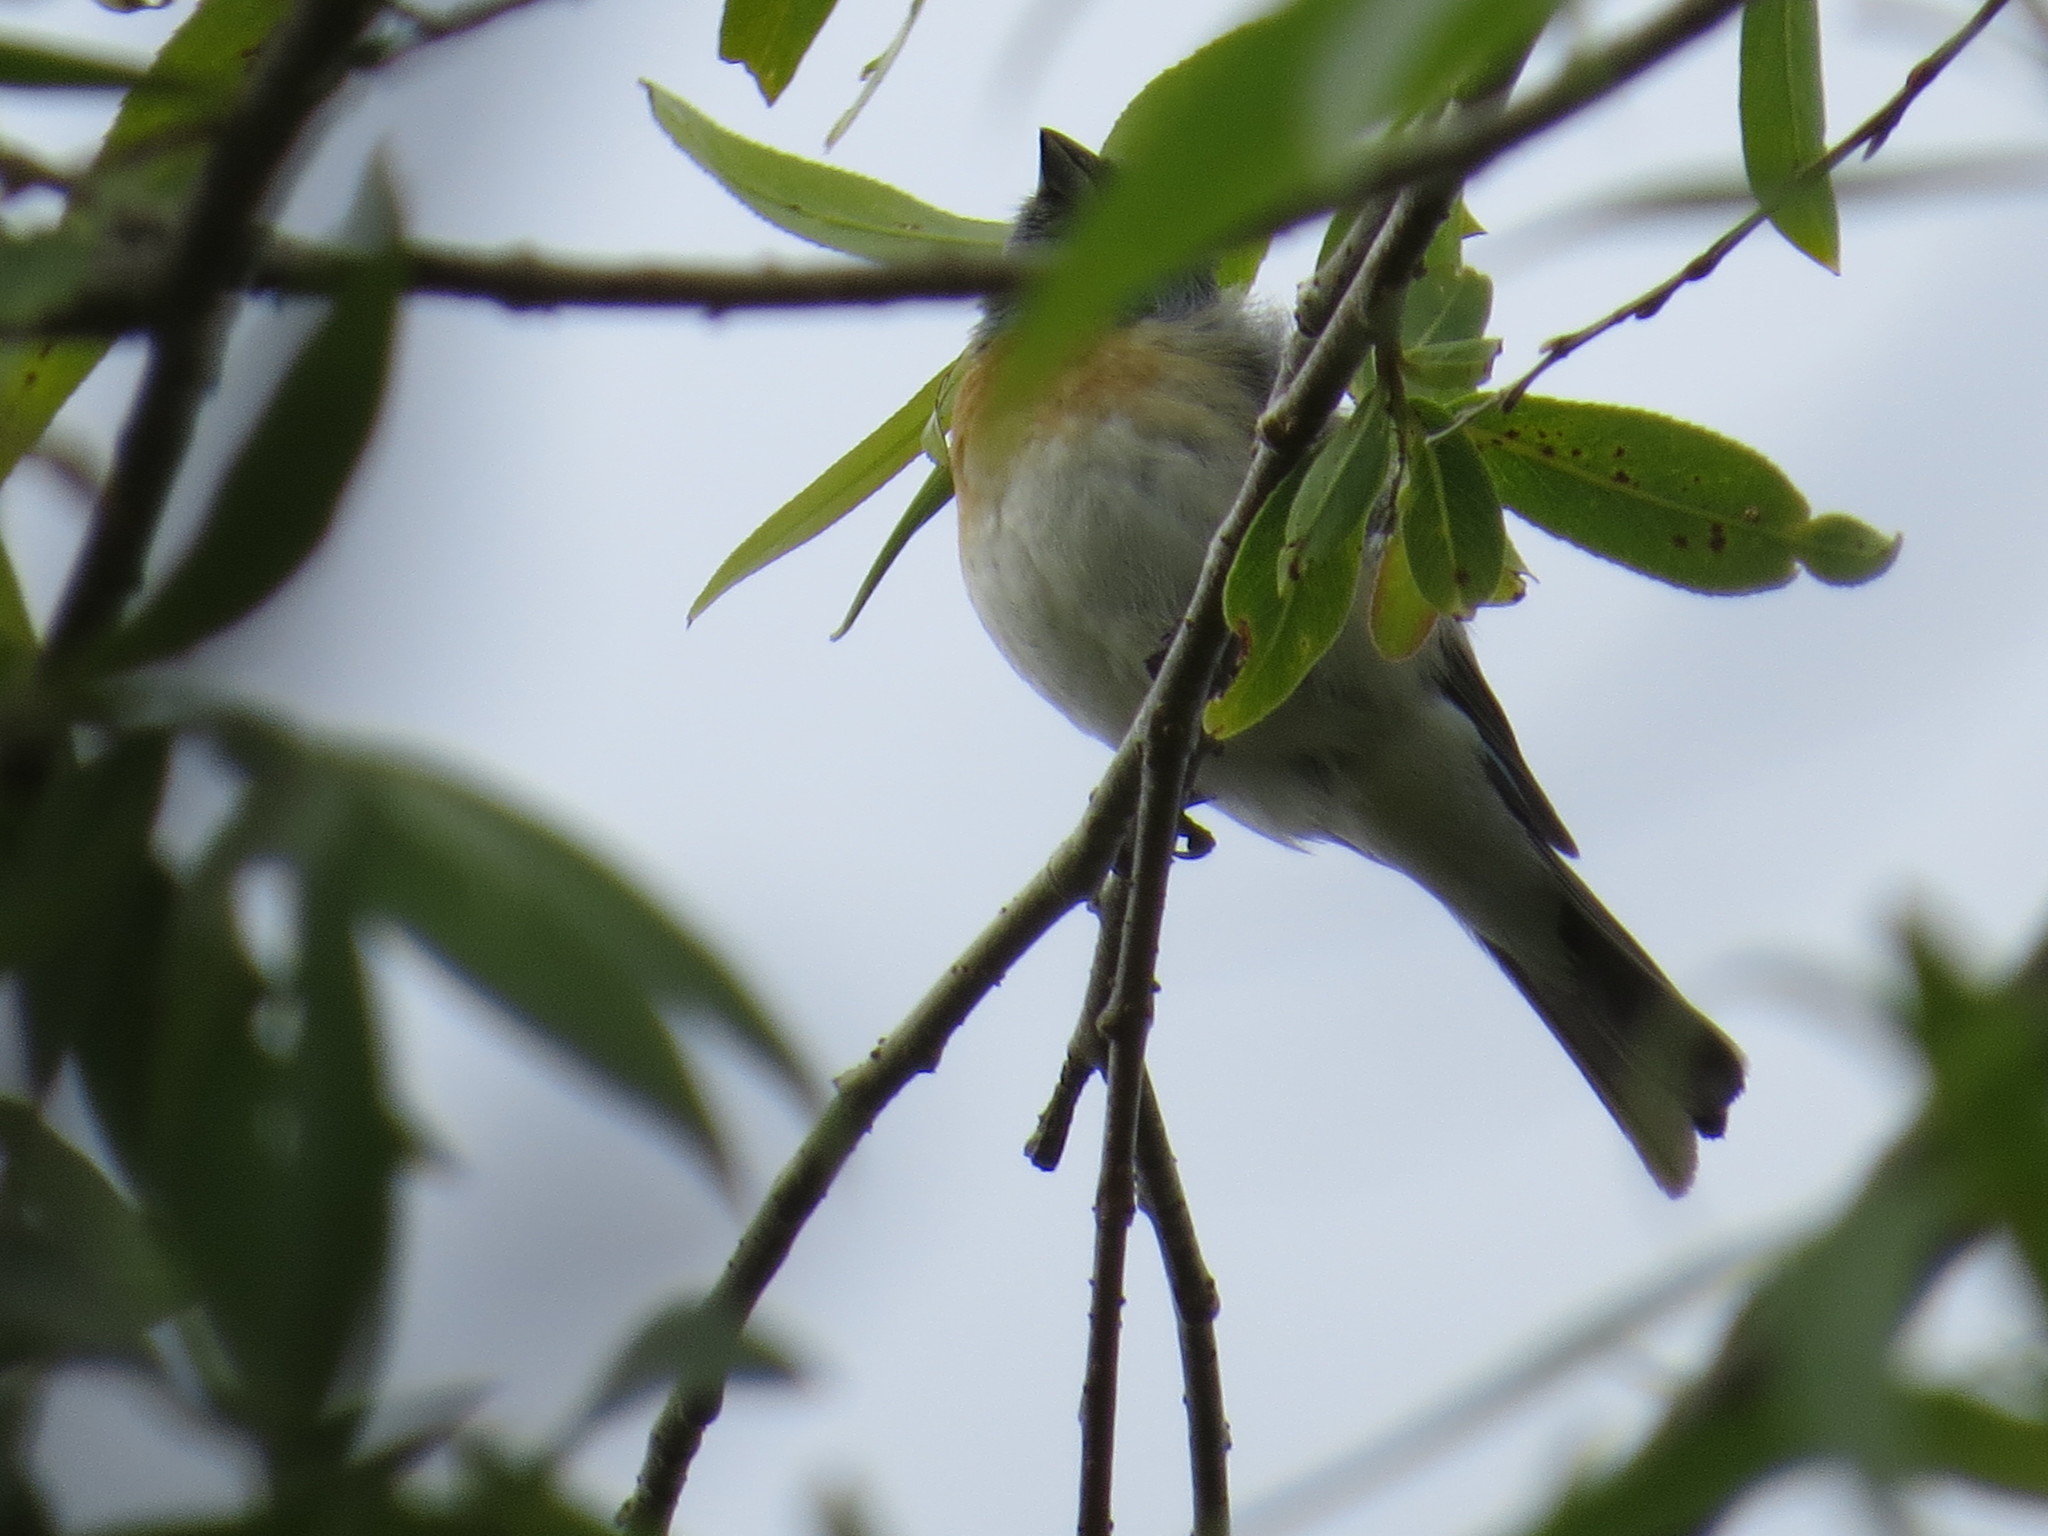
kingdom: Animalia
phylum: Chordata
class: Aves
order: Passeriformes
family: Cardinalidae
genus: Passerina
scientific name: Passerina amoena
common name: Lazuli bunting
